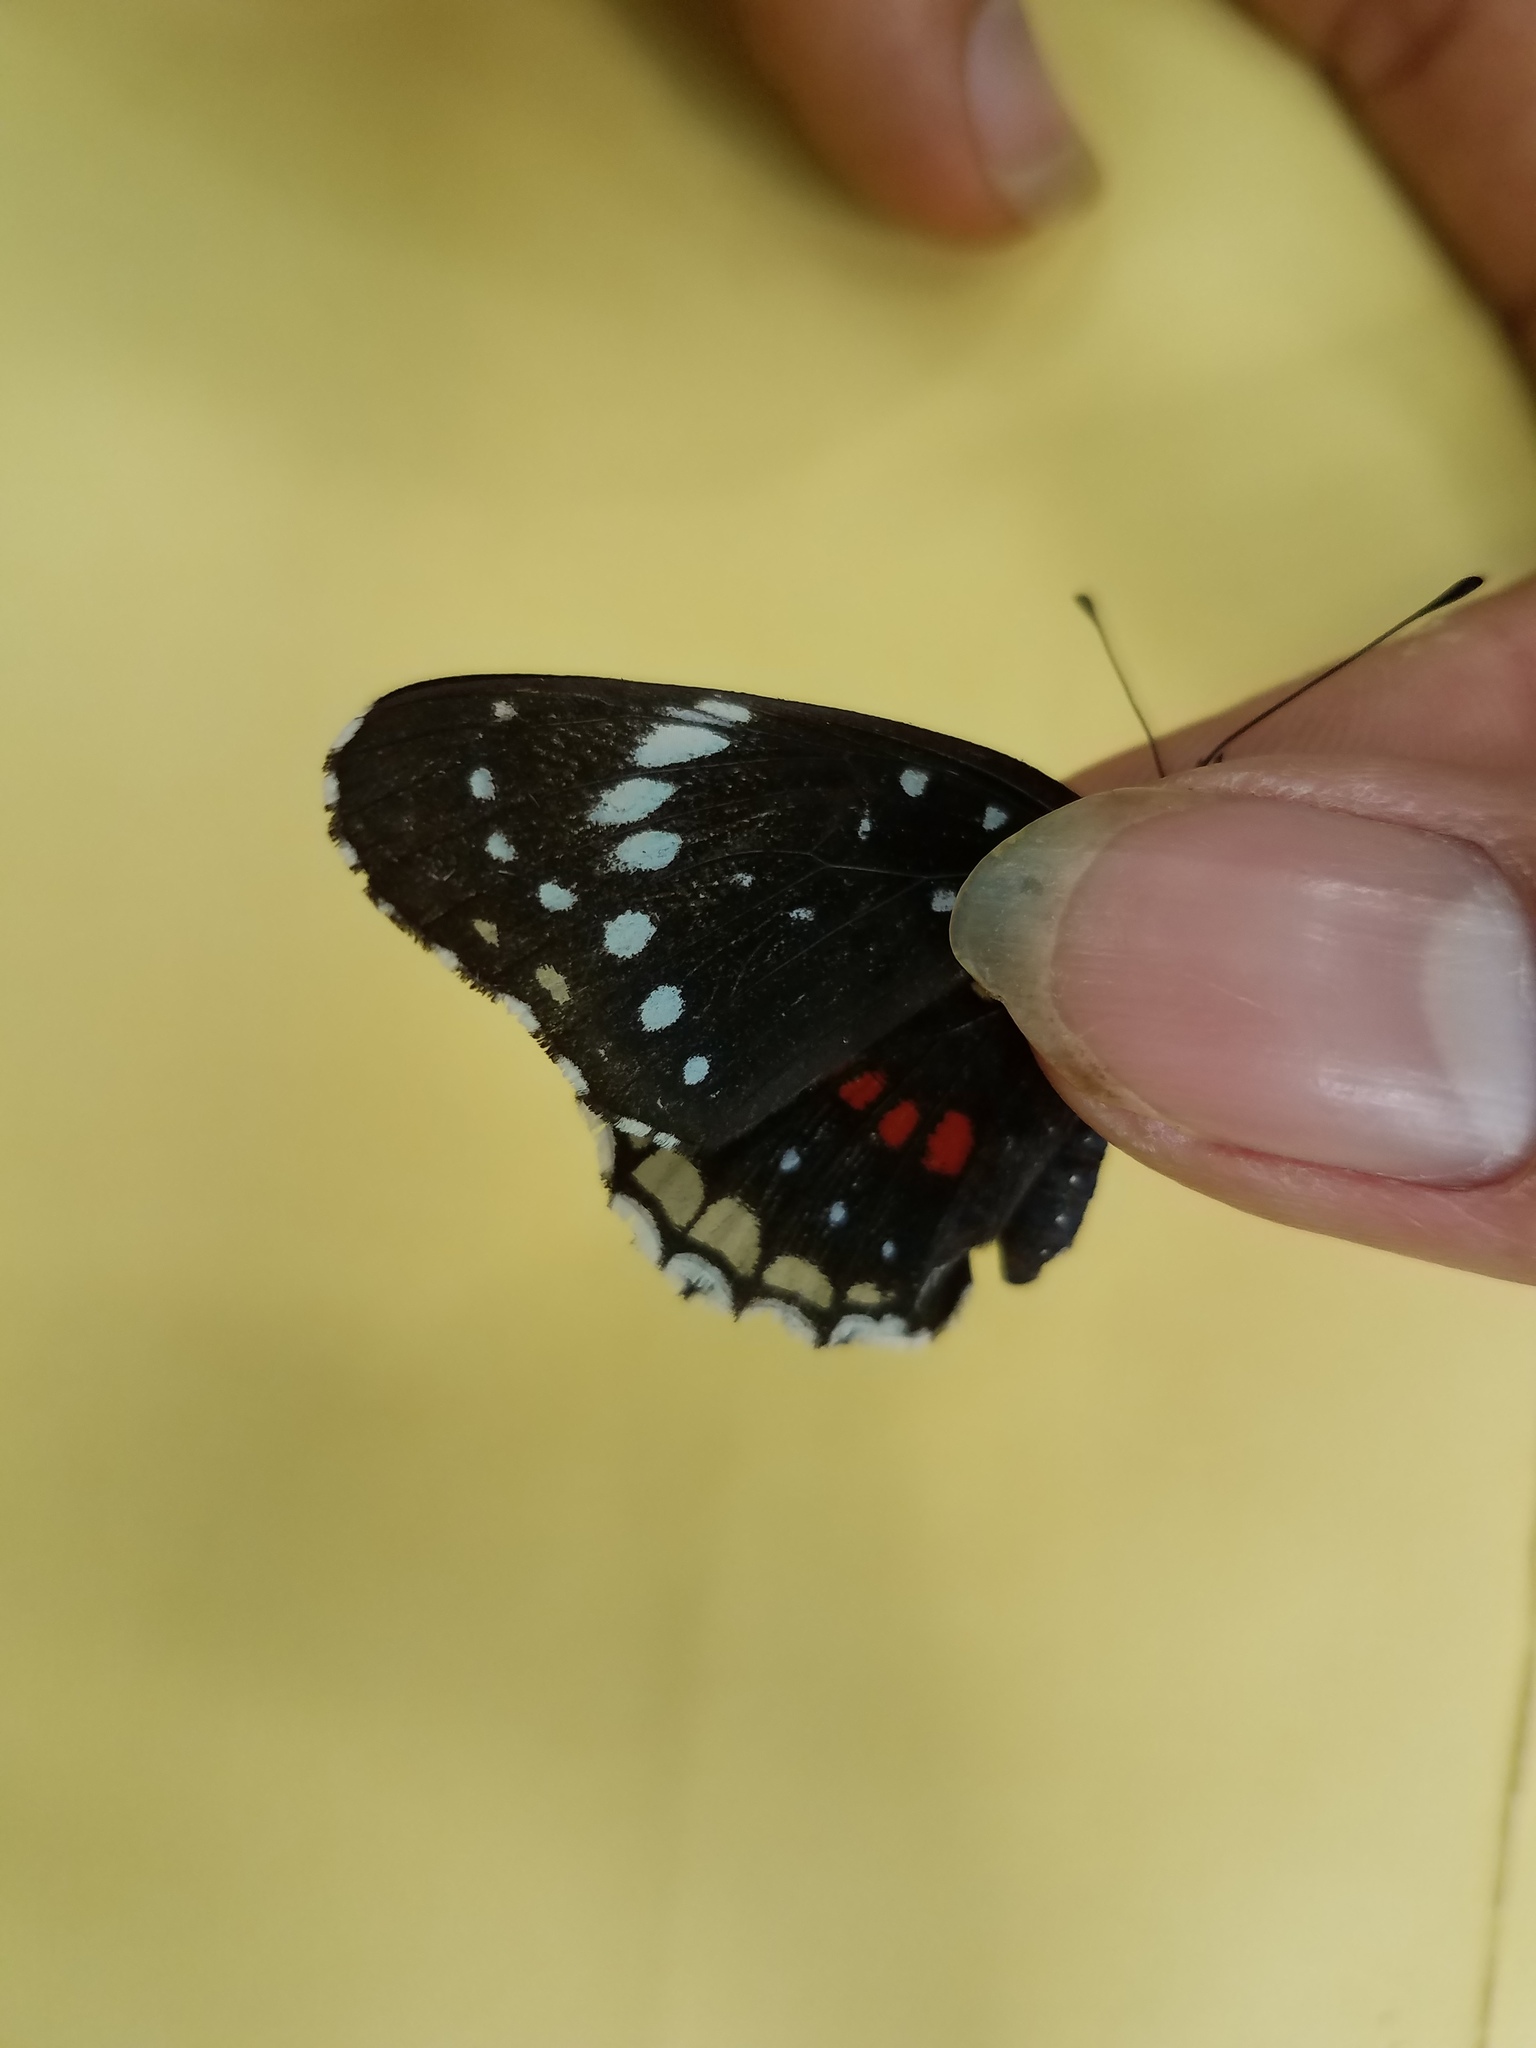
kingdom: Animalia
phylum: Arthropoda
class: Insecta
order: Lepidoptera
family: Nymphalidae
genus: Chlosyne
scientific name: Chlosyne hippodrome
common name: Simple patch
